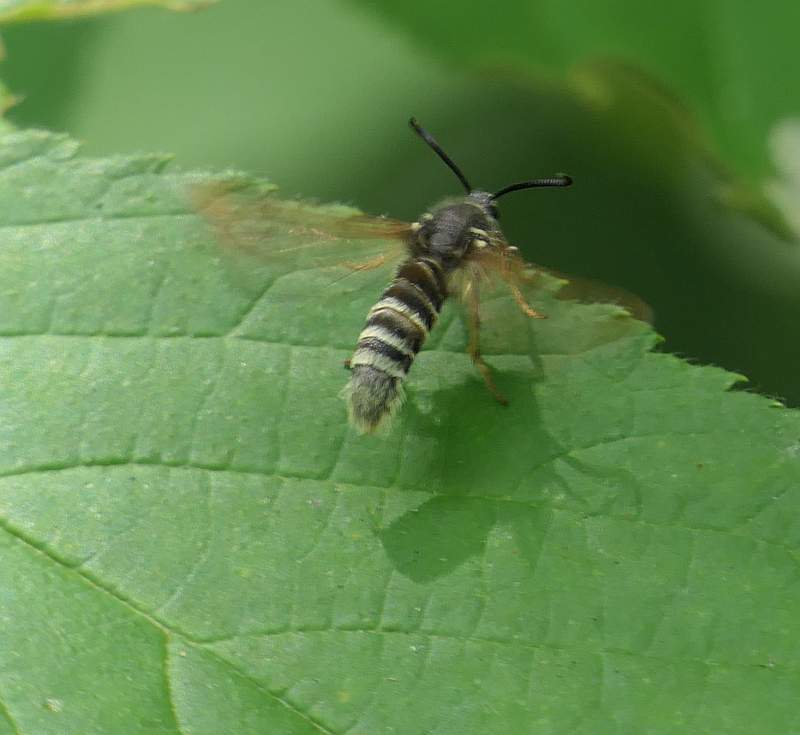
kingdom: Animalia
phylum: Arthropoda
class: Insecta
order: Lepidoptera
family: Sesiidae
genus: Pennisetia
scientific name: Pennisetia marginatum
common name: Raspberry crown borer
